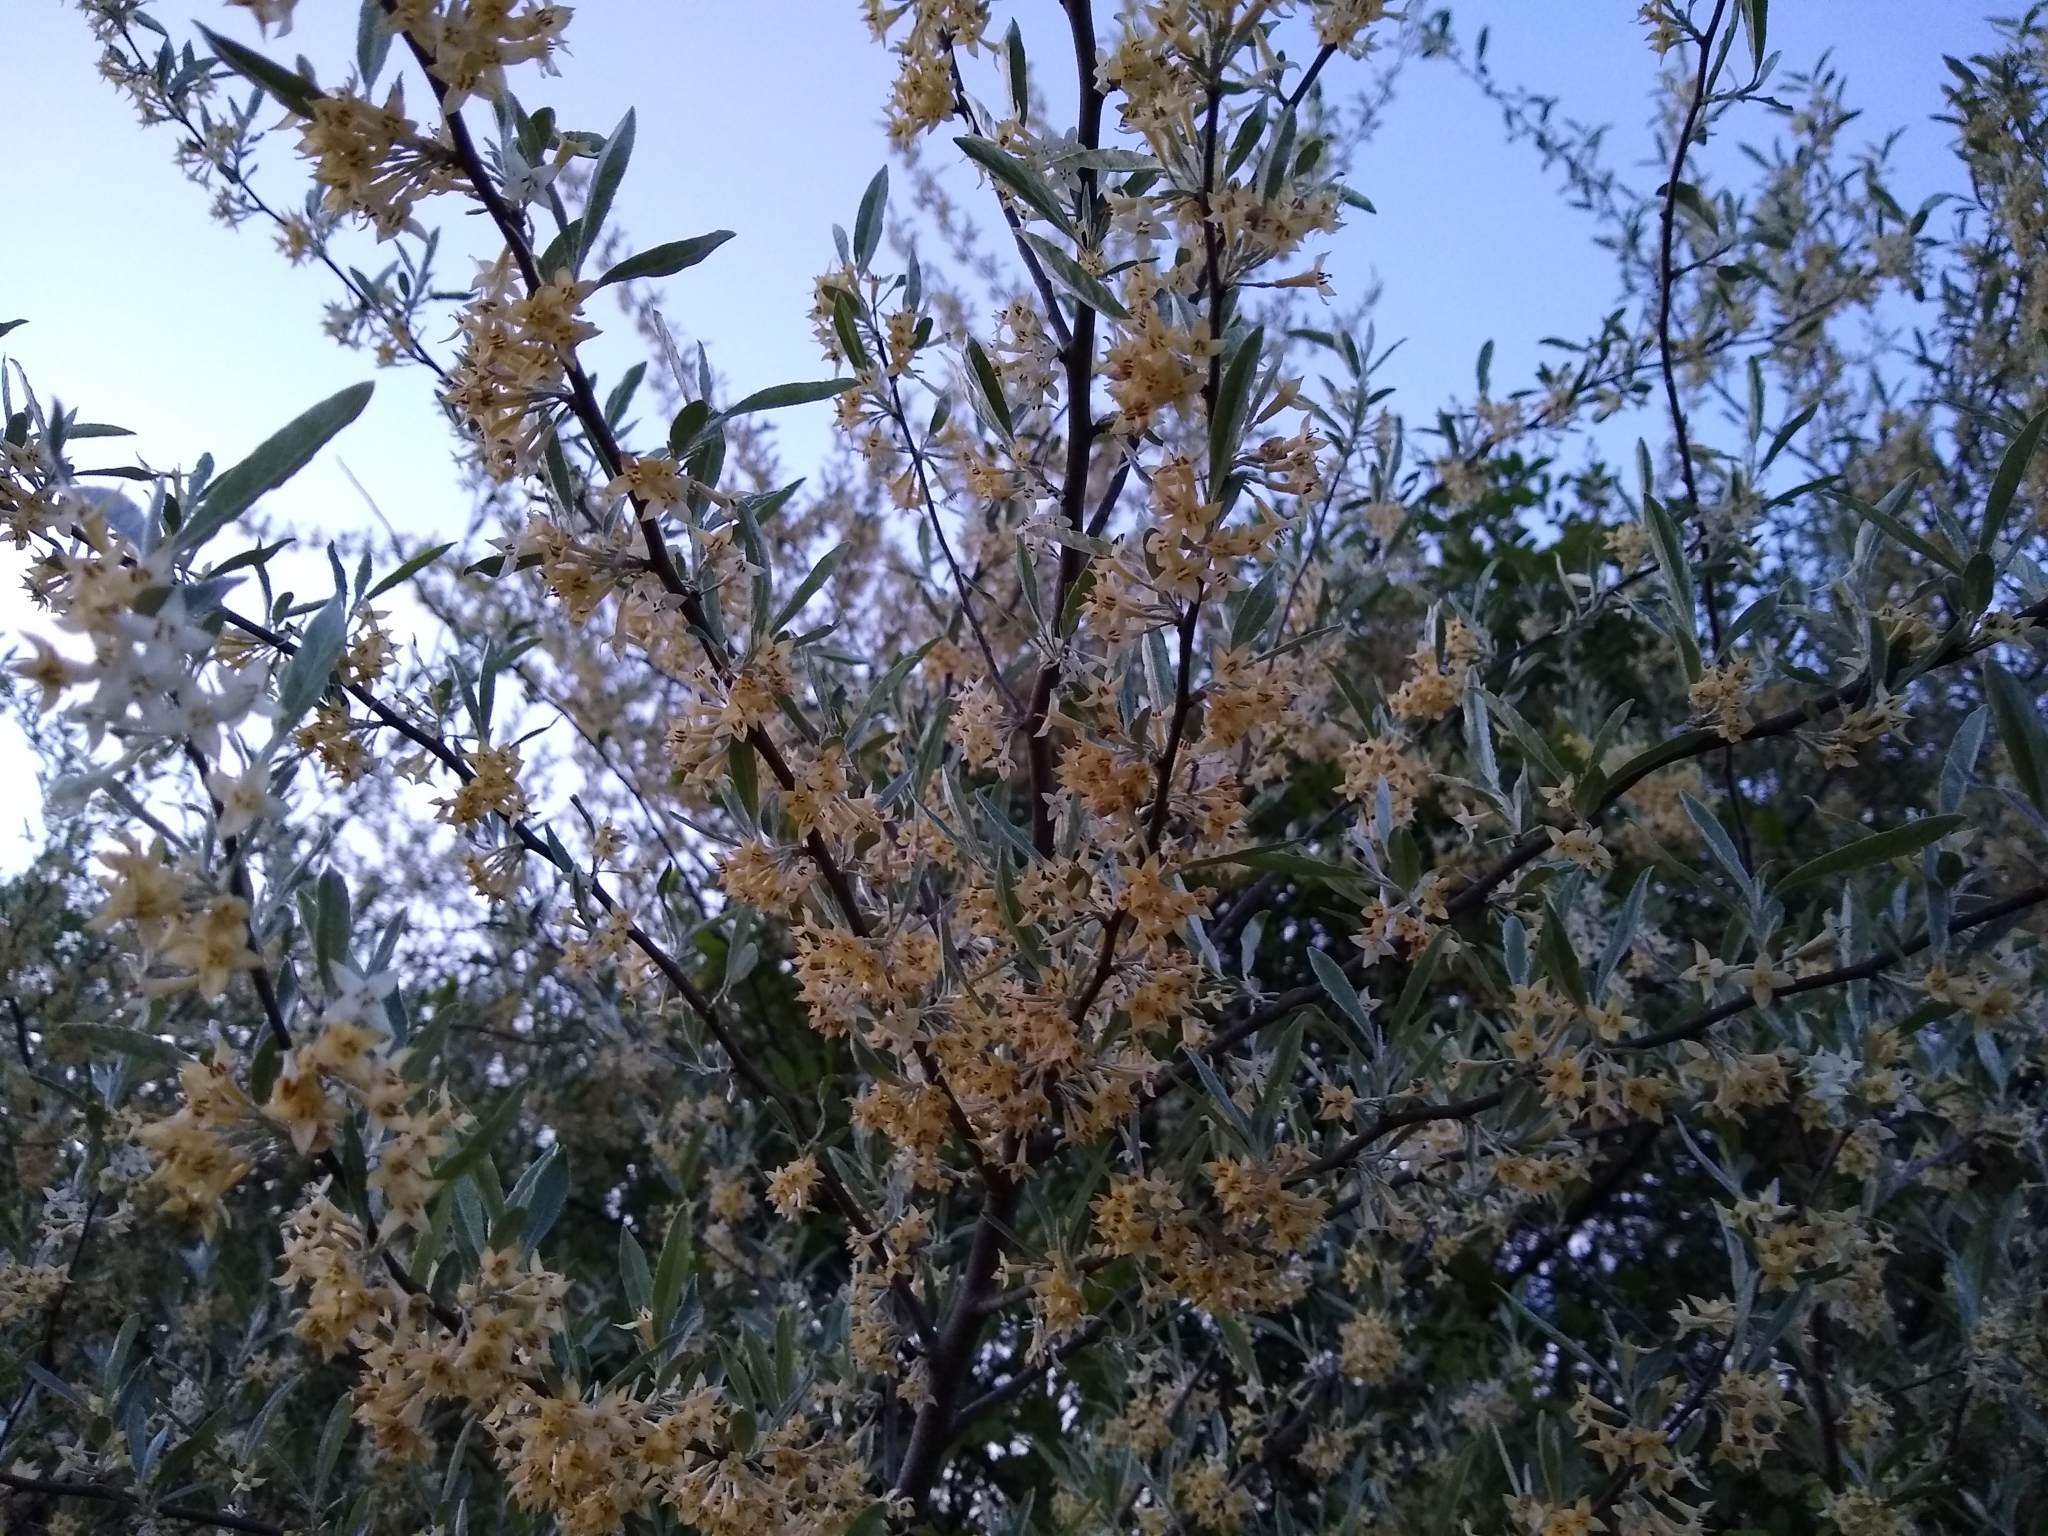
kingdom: Plantae
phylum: Tracheophyta
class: Magnoliopsida
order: Rosales
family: Elaeagnaceae
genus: Elaeagnus
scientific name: Elaeagnus umbellata
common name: Autumn olive
